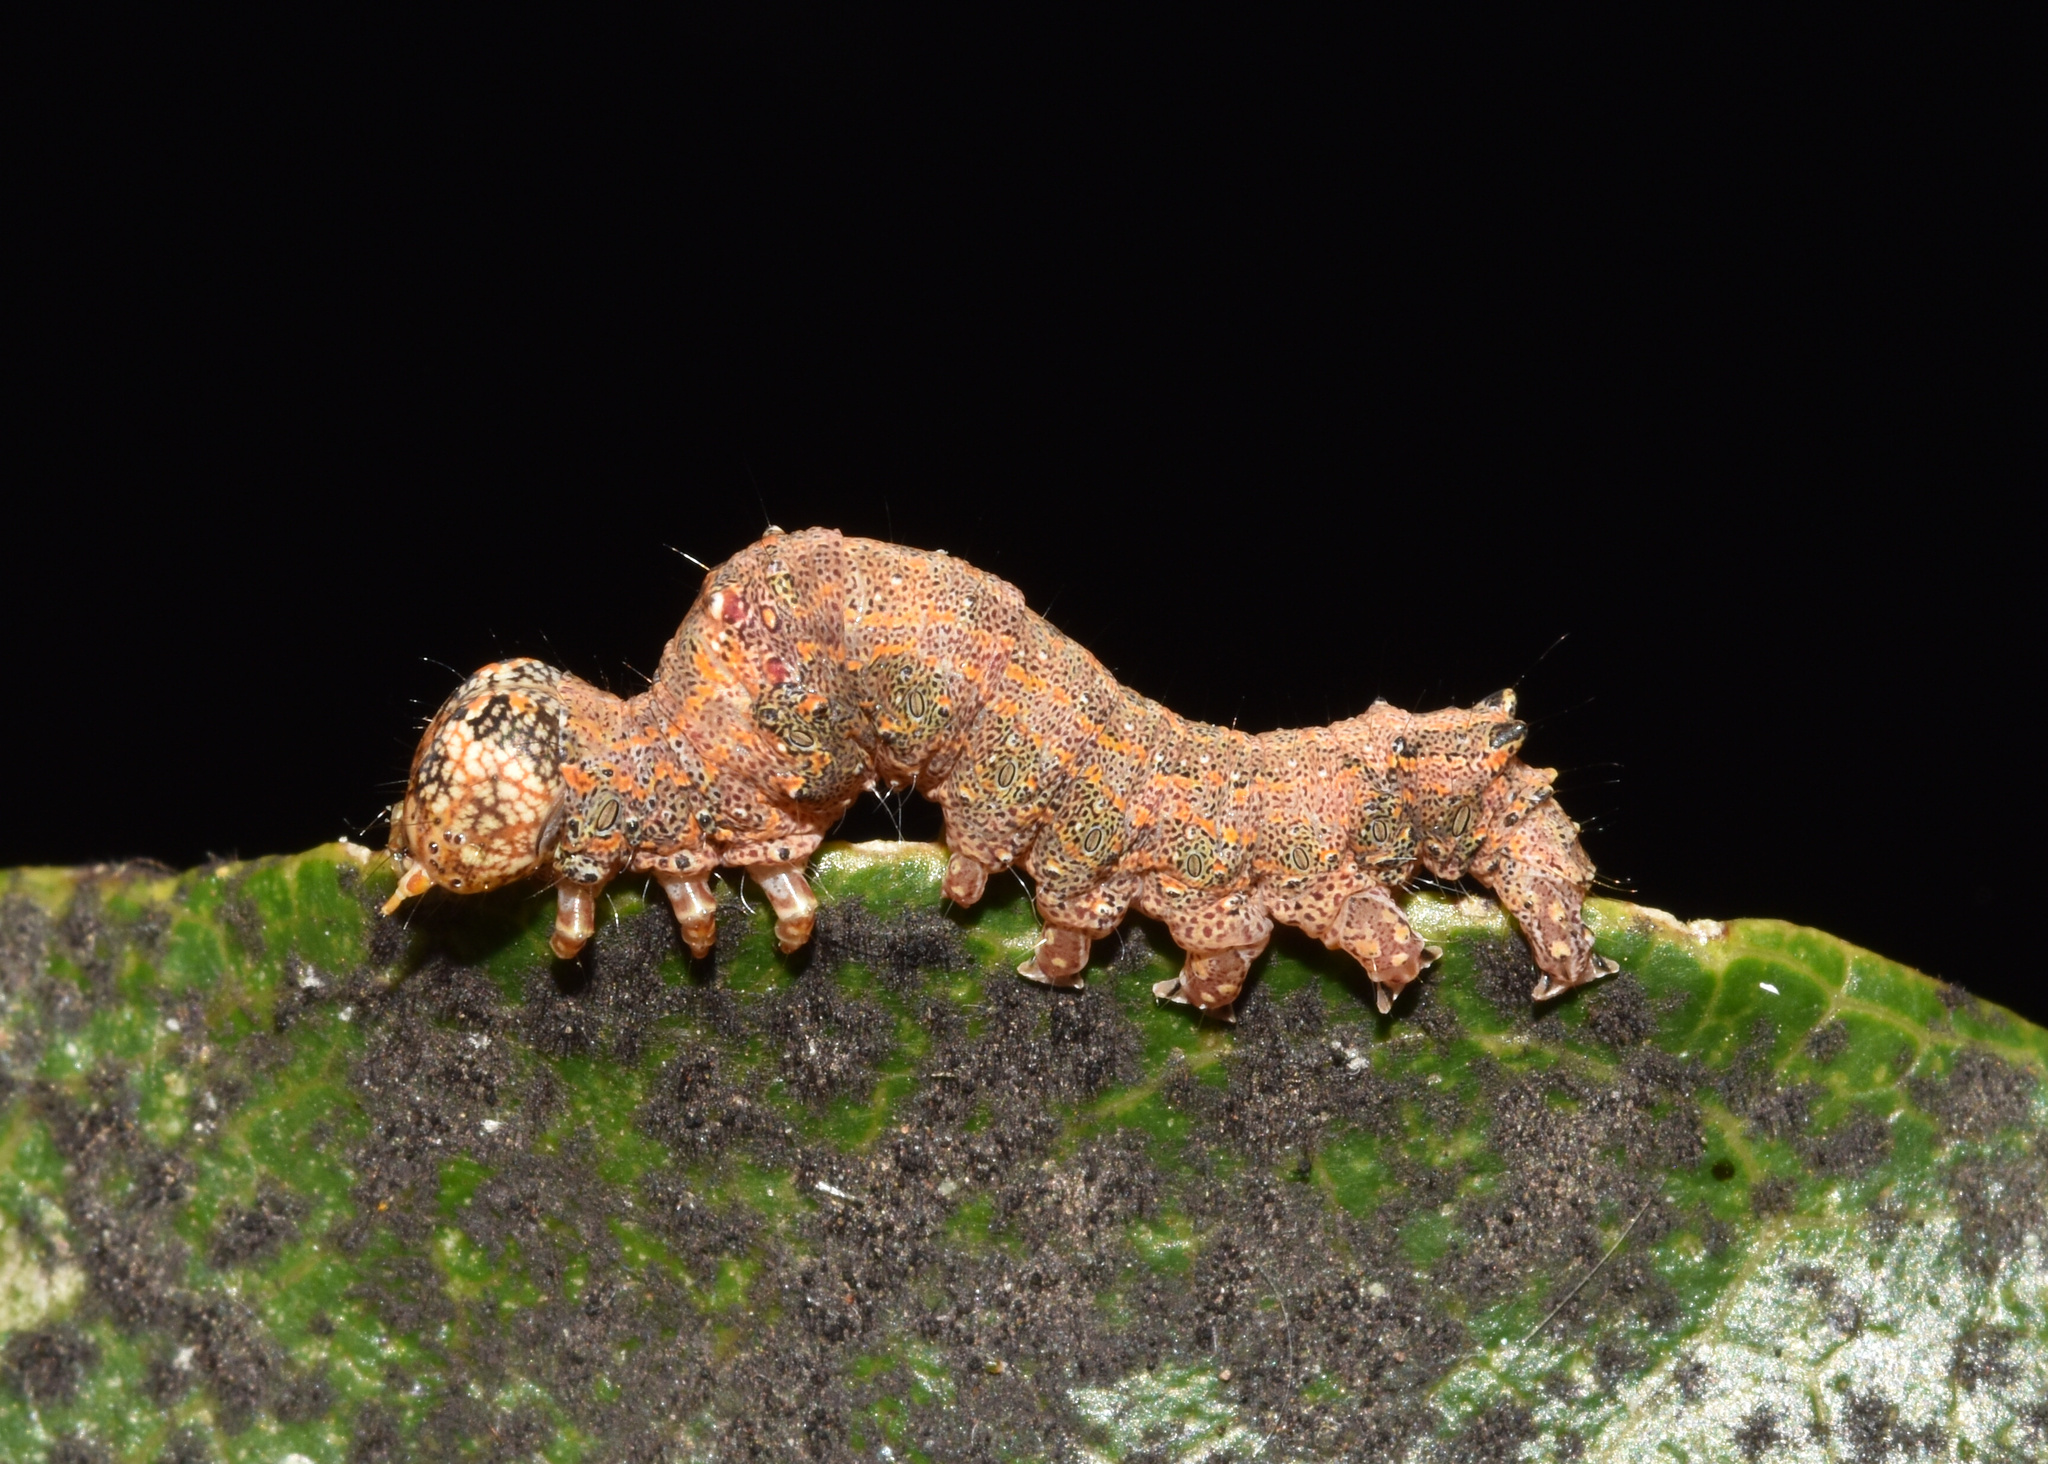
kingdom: Animalia
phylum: Arthropoda
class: Insecta
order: Lepidoptera
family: Erebidae
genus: Serrodes
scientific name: Serrodes campana
